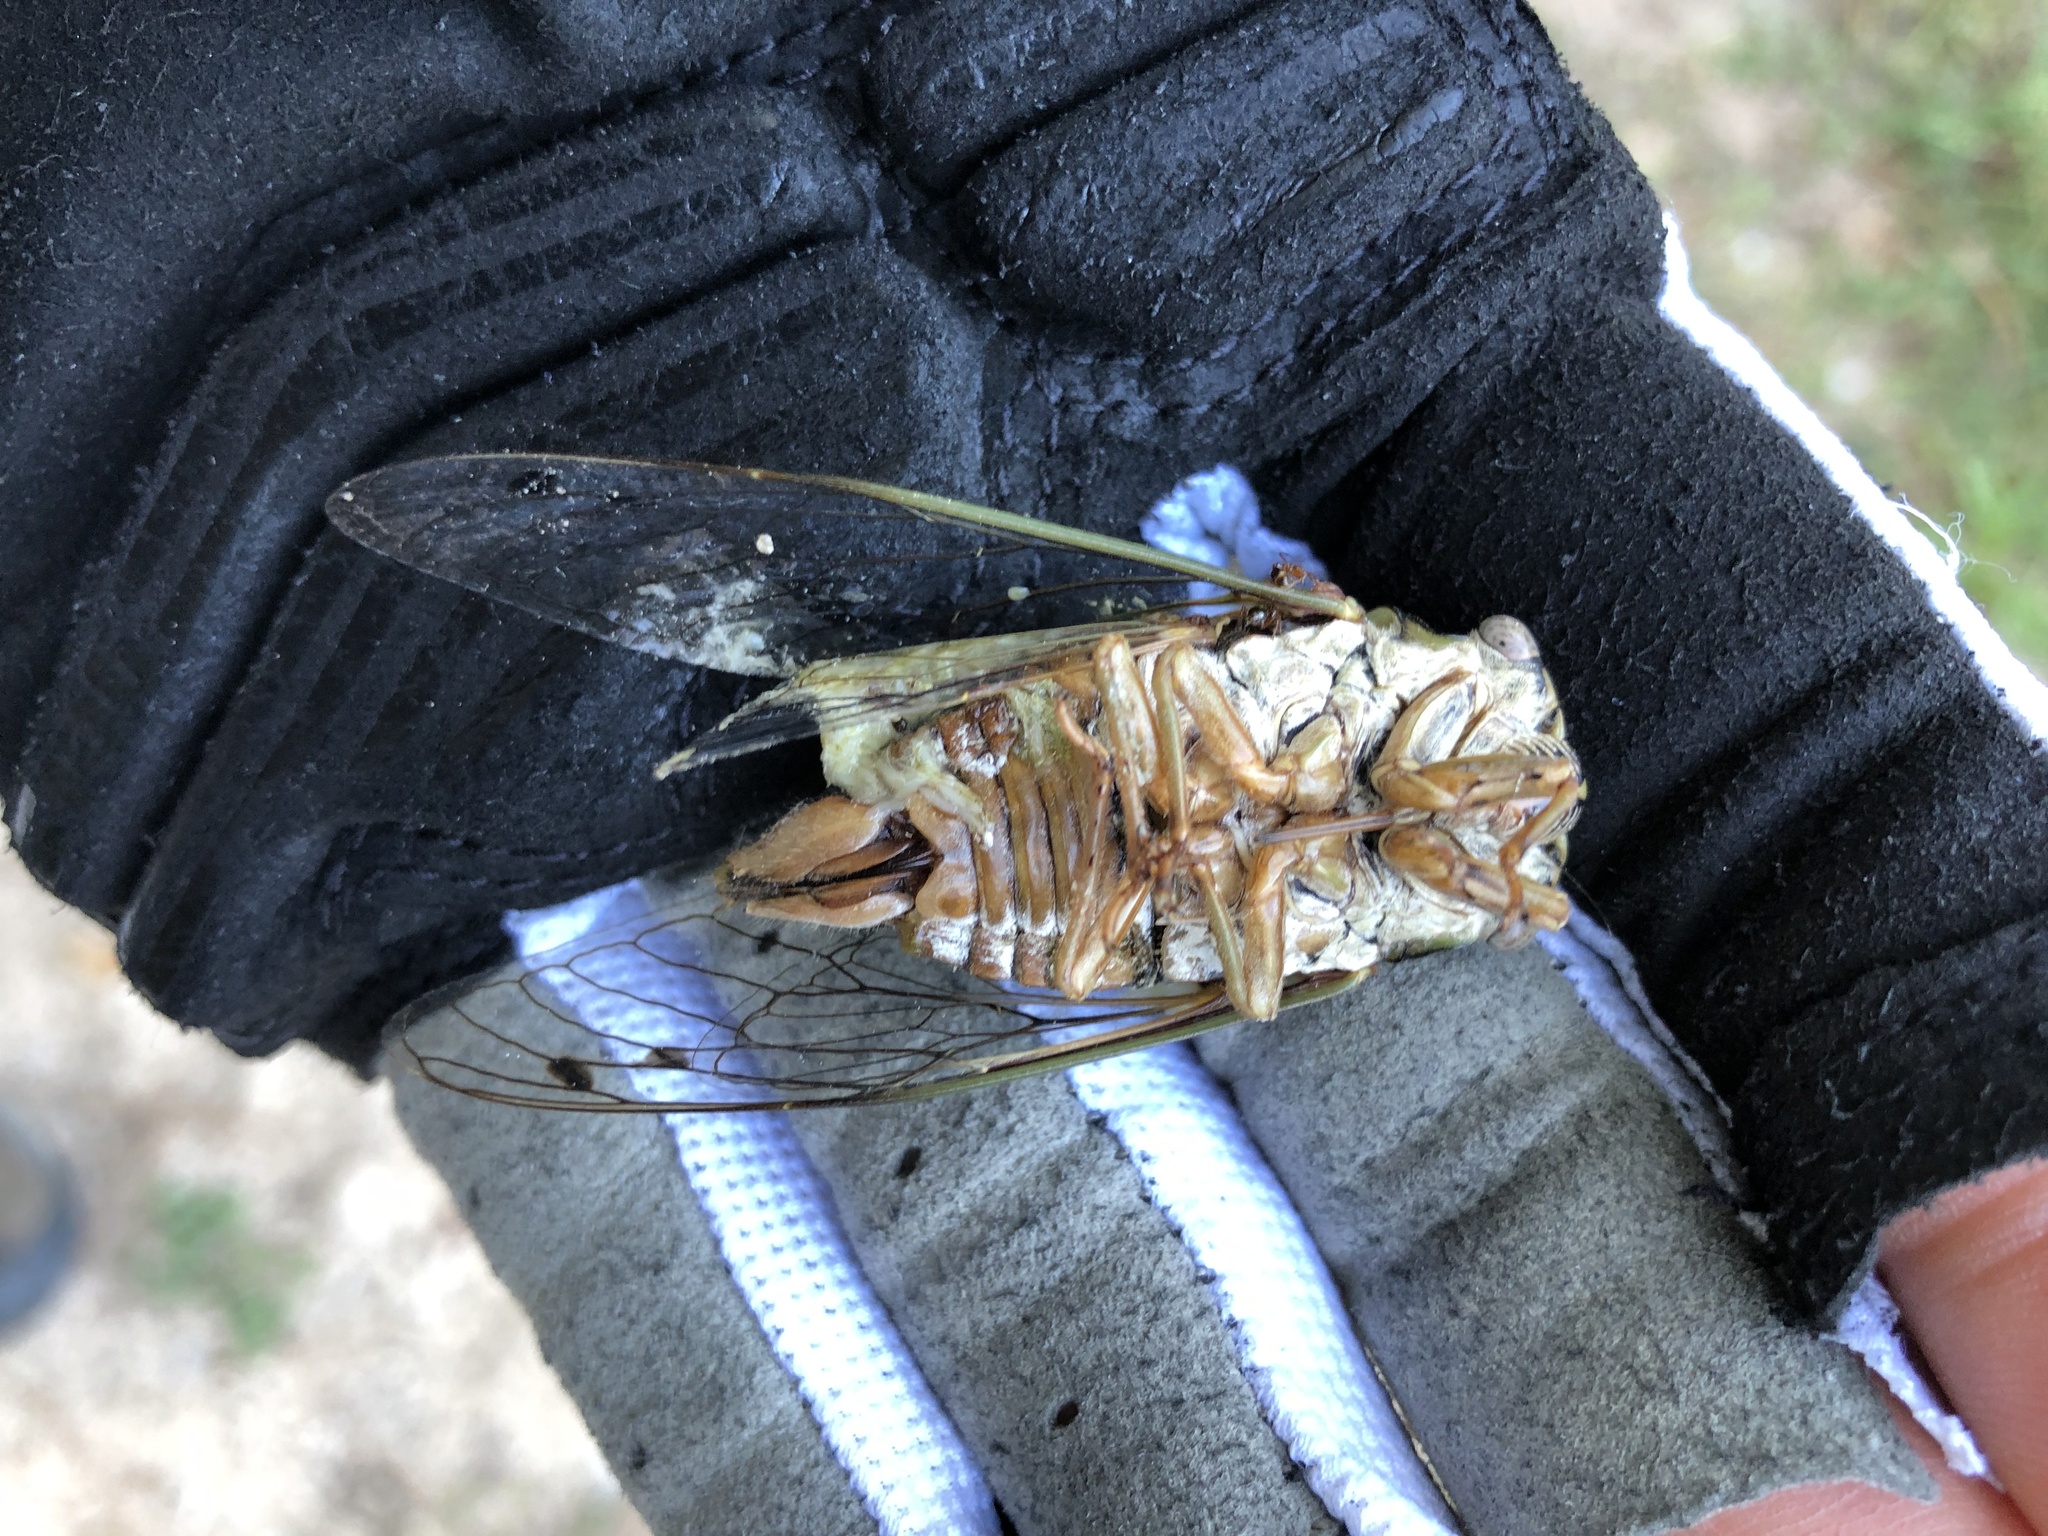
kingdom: Animalia
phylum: Arthropoda
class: Insecta
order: Hemiptera
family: Cicadidae
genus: Megatibicen
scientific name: Megatibicen resh
